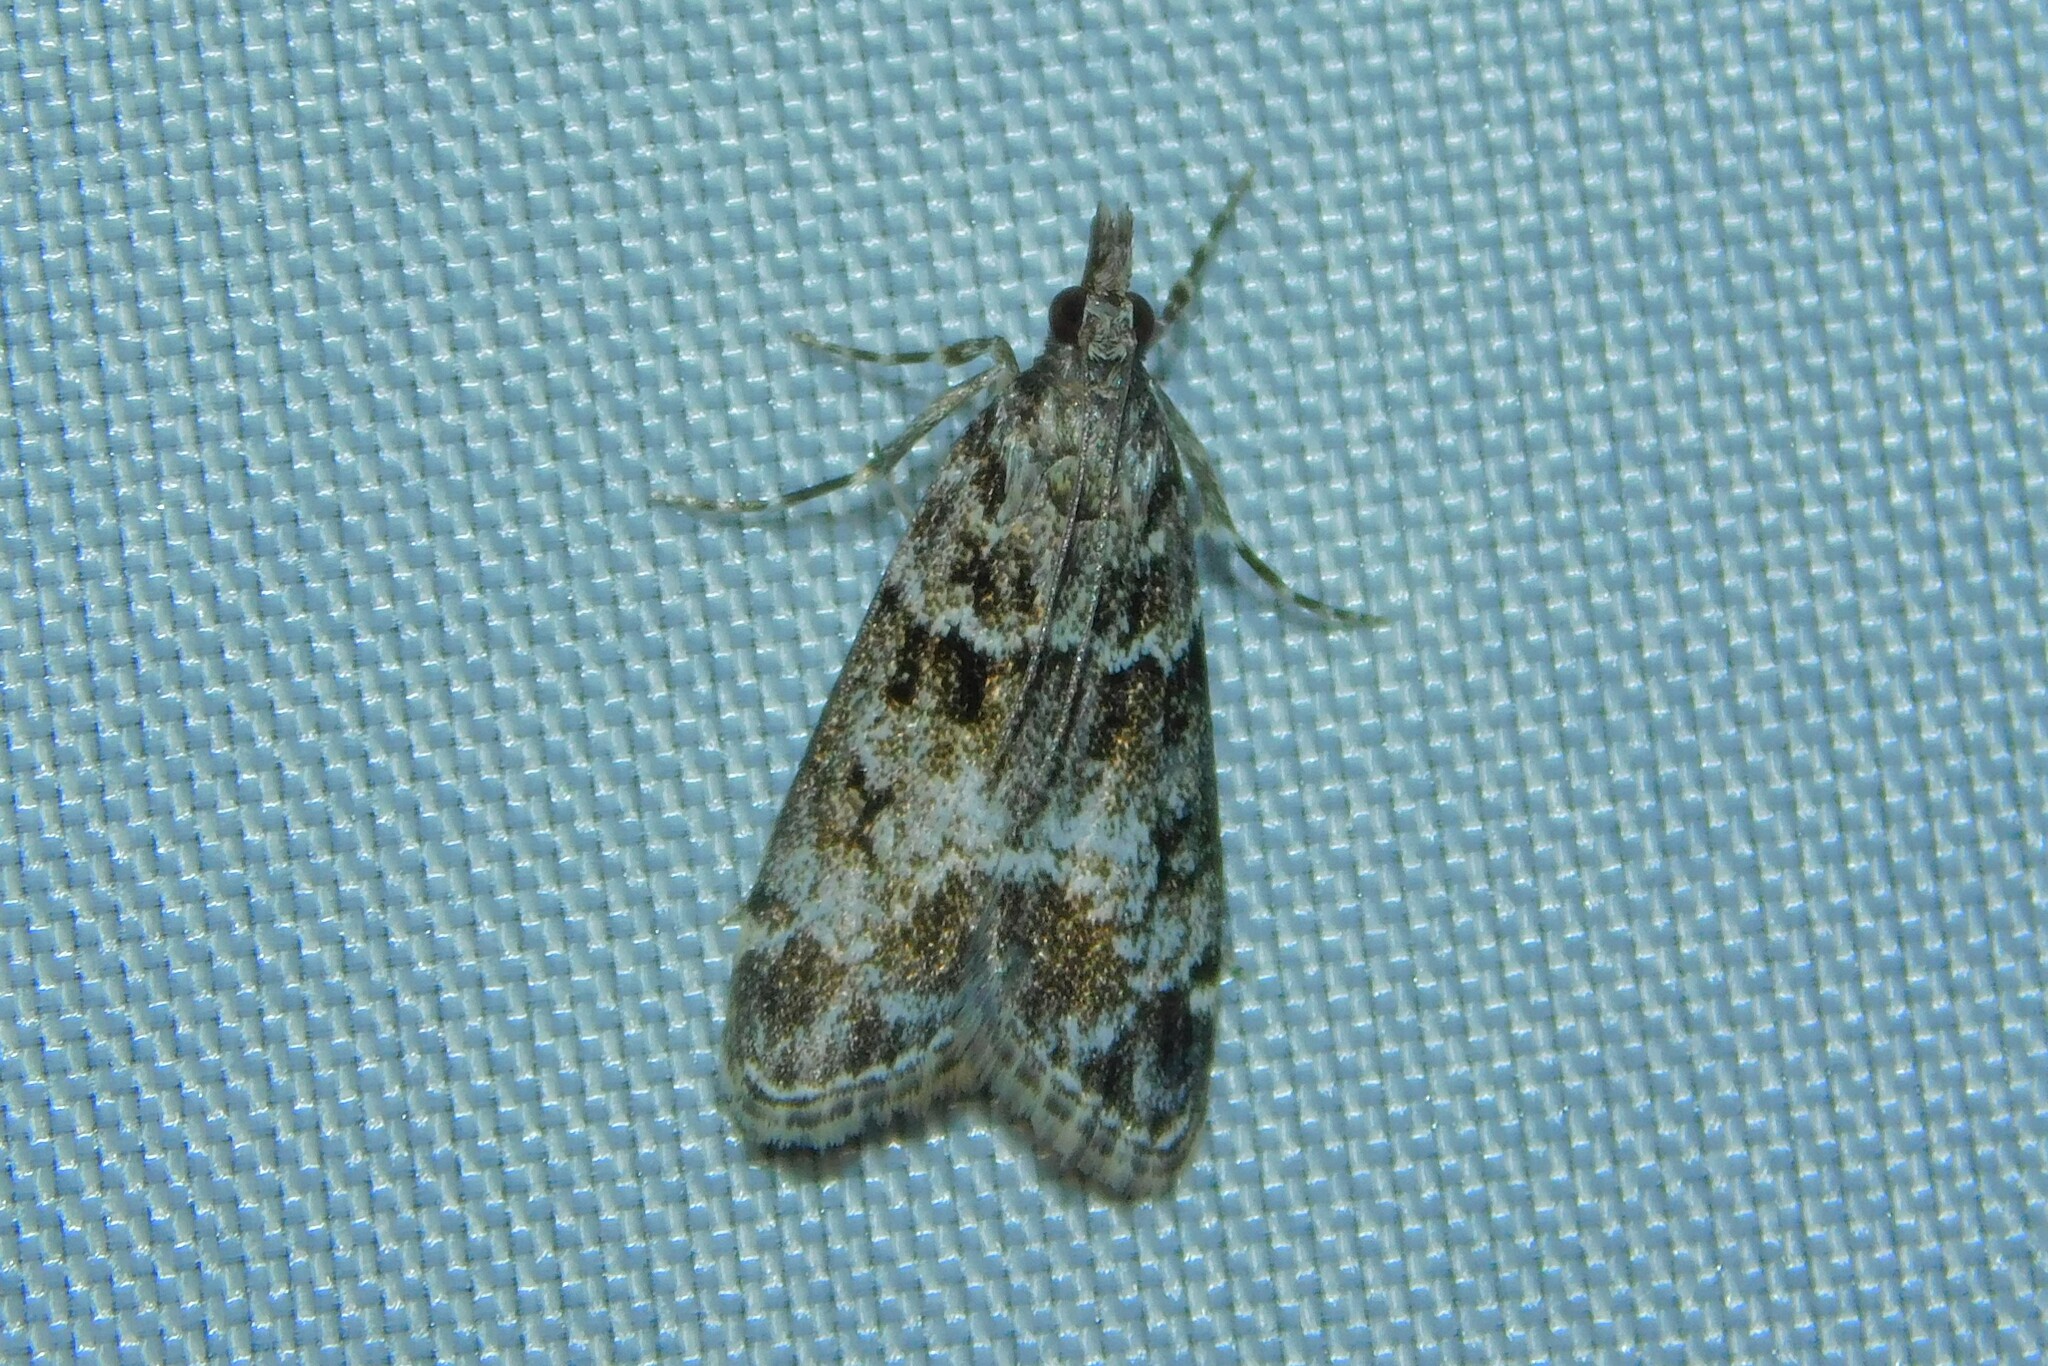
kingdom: Animalia
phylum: Arthropoda
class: Insecta
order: Lepidoptera
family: Crambidae
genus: Eudonia
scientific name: Eudonia mercurella
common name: Small grey
